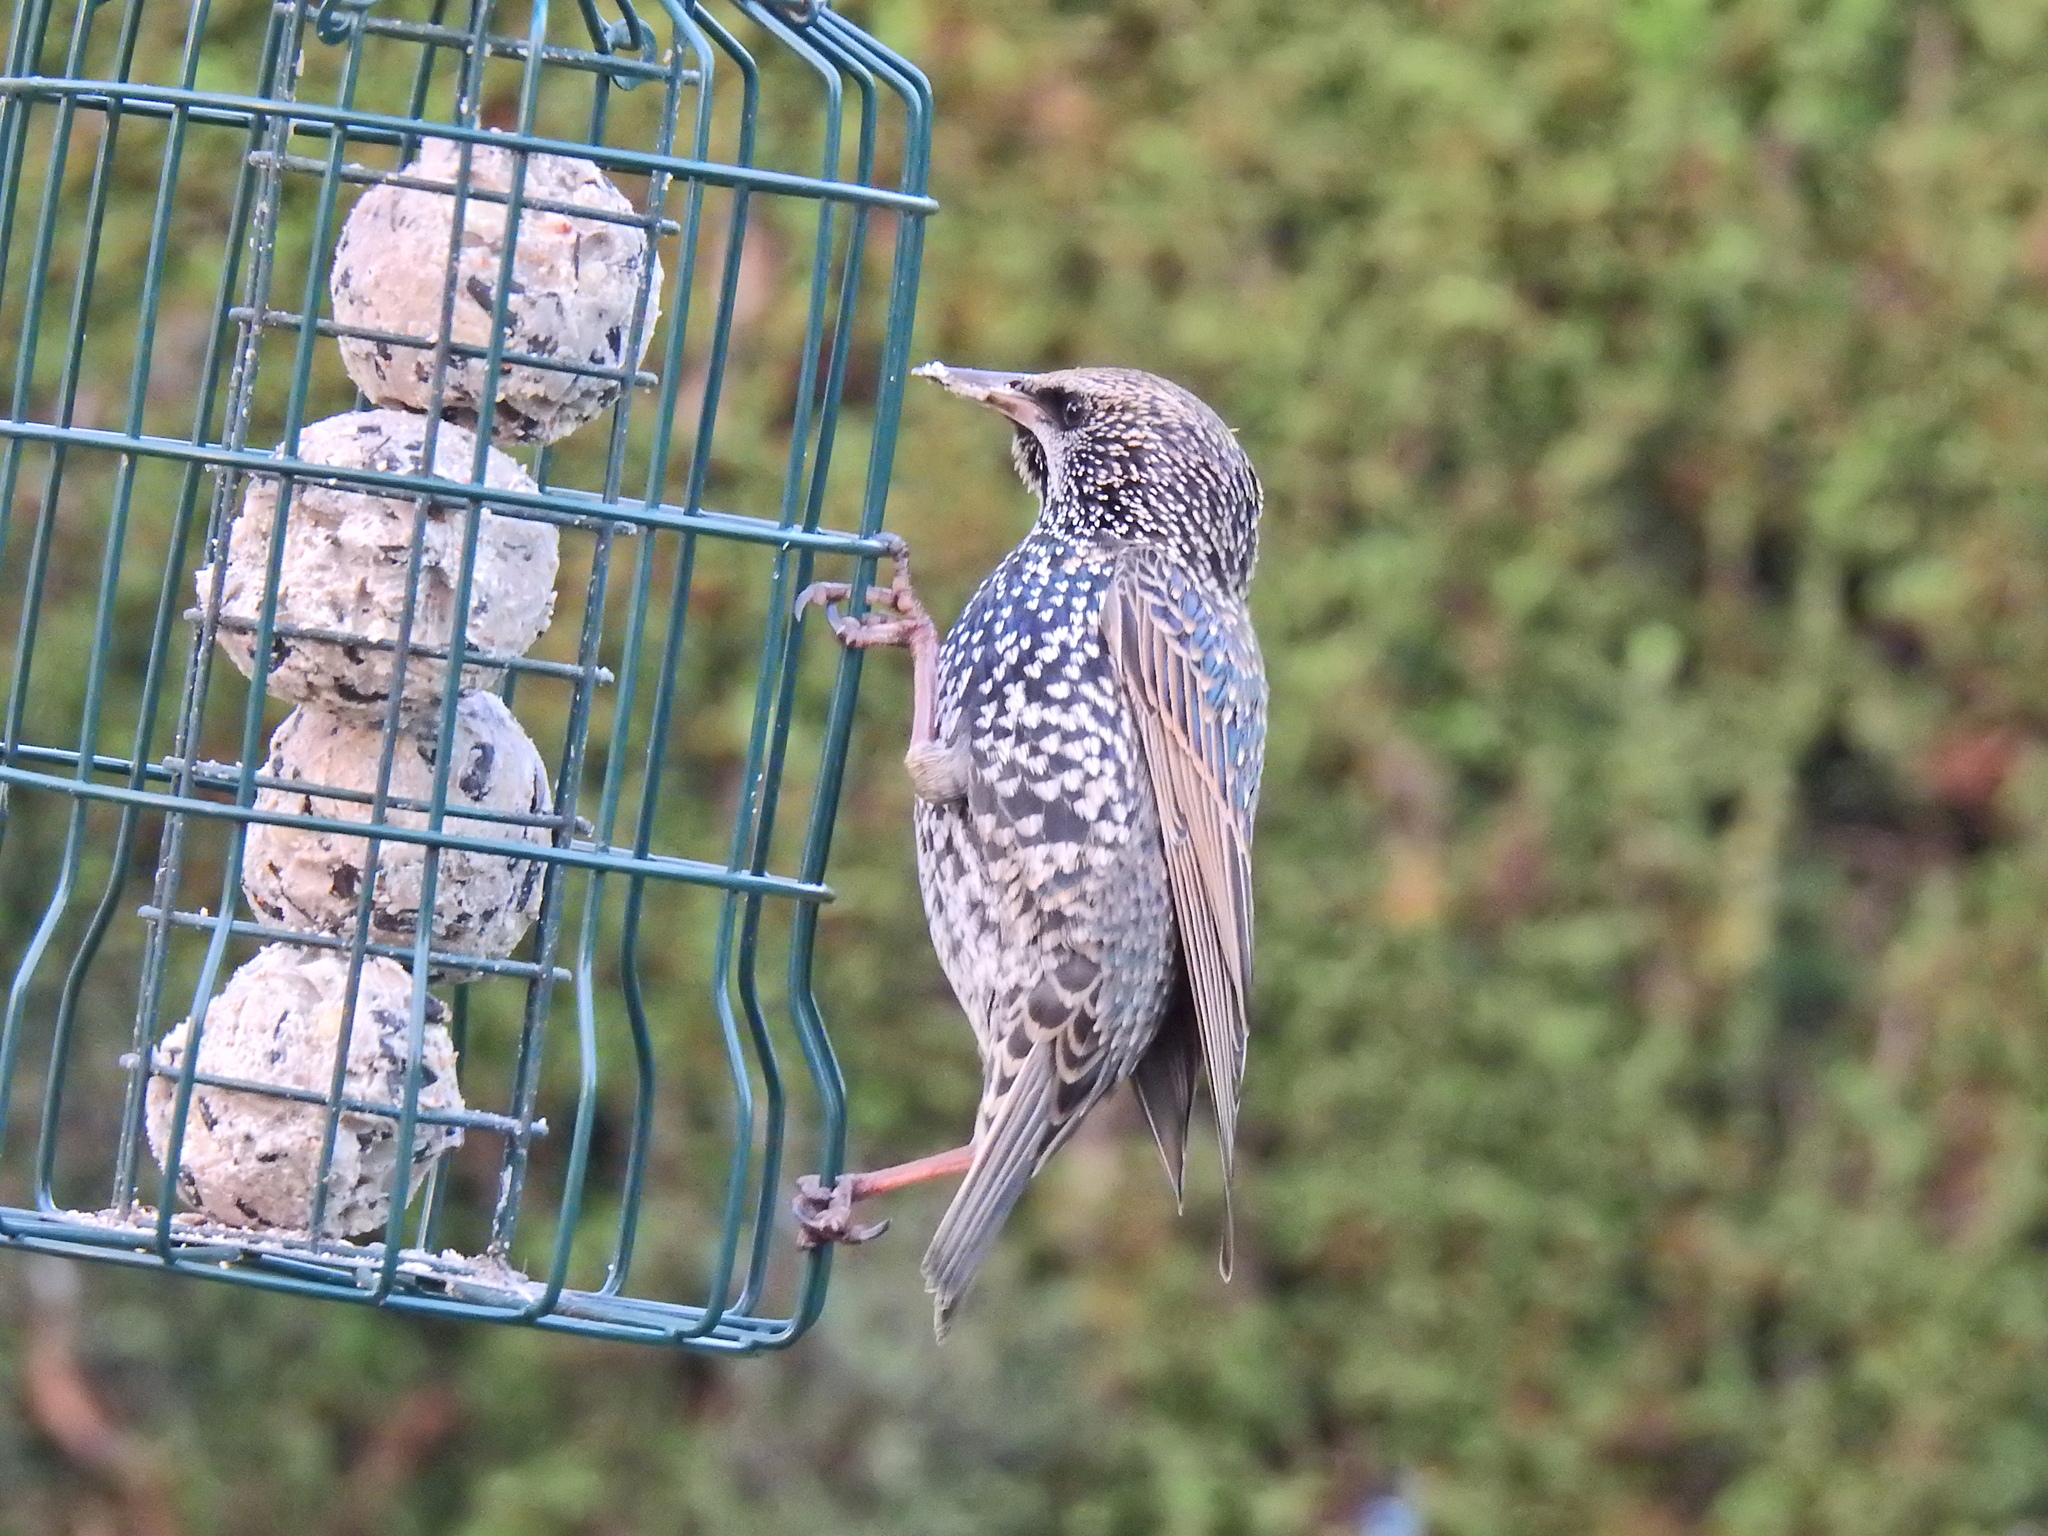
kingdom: Animalia
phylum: Chordata
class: Aves
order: Passeriformes
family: Sturnidae
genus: Sturnus
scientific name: Sturnus vulgaris
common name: Common starling
